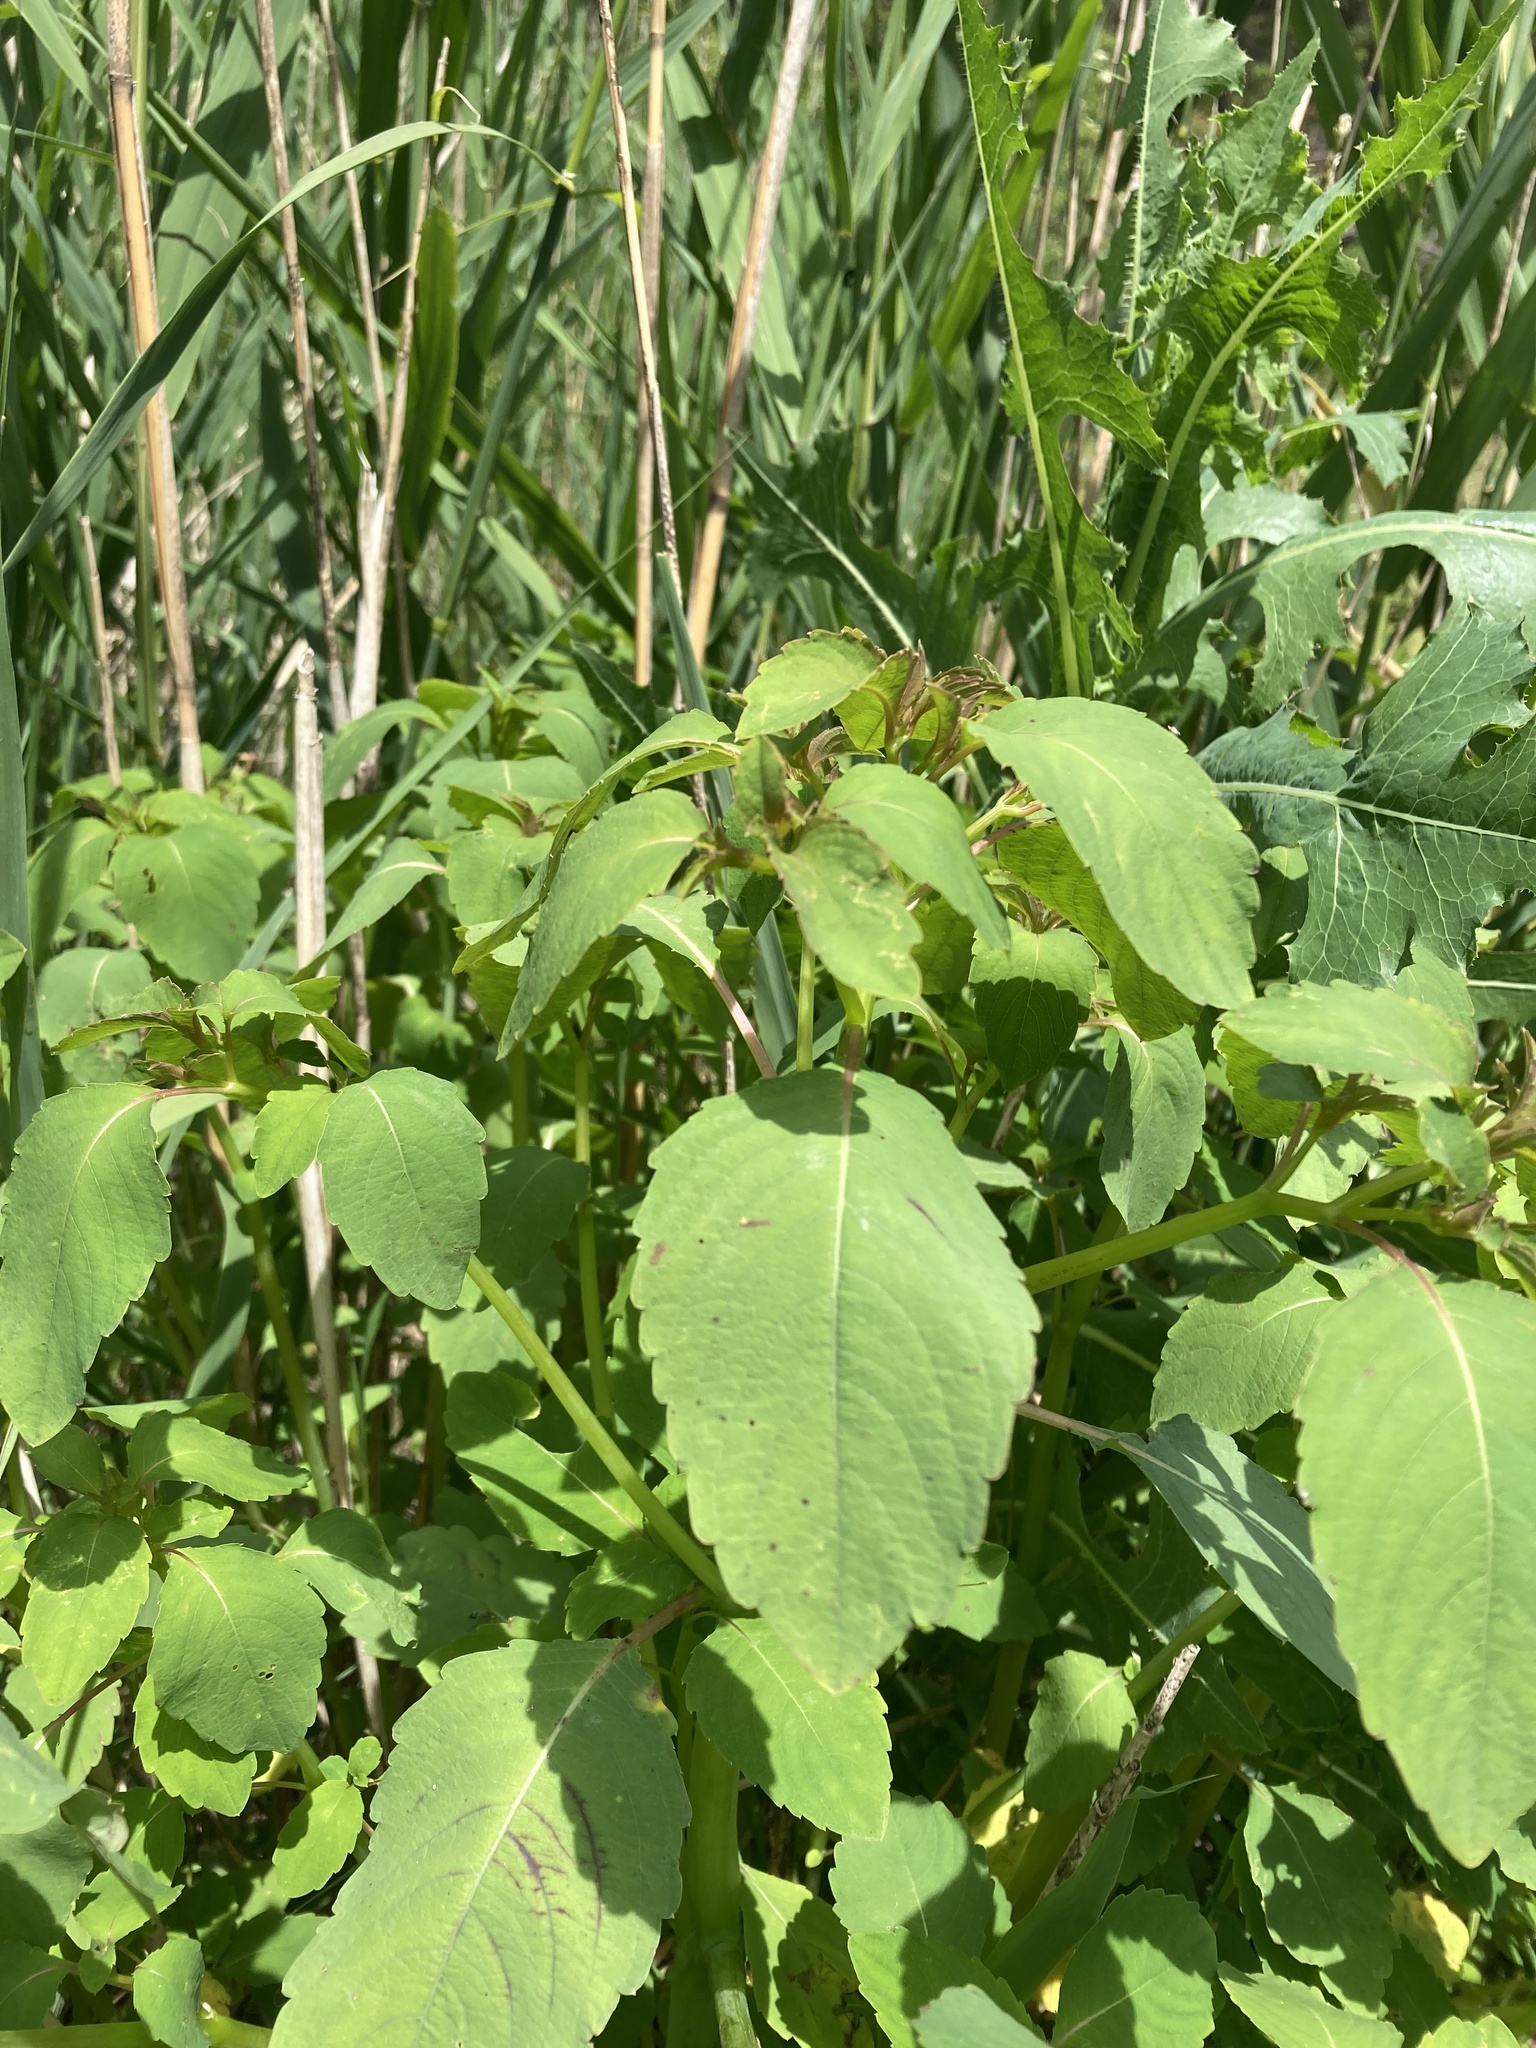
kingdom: Plantae
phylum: Tracheophyta
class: Magnoliopsida
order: Ericales
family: Balsaminaceae
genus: Impatiens
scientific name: Impatiens capensis
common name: Orange balsam
